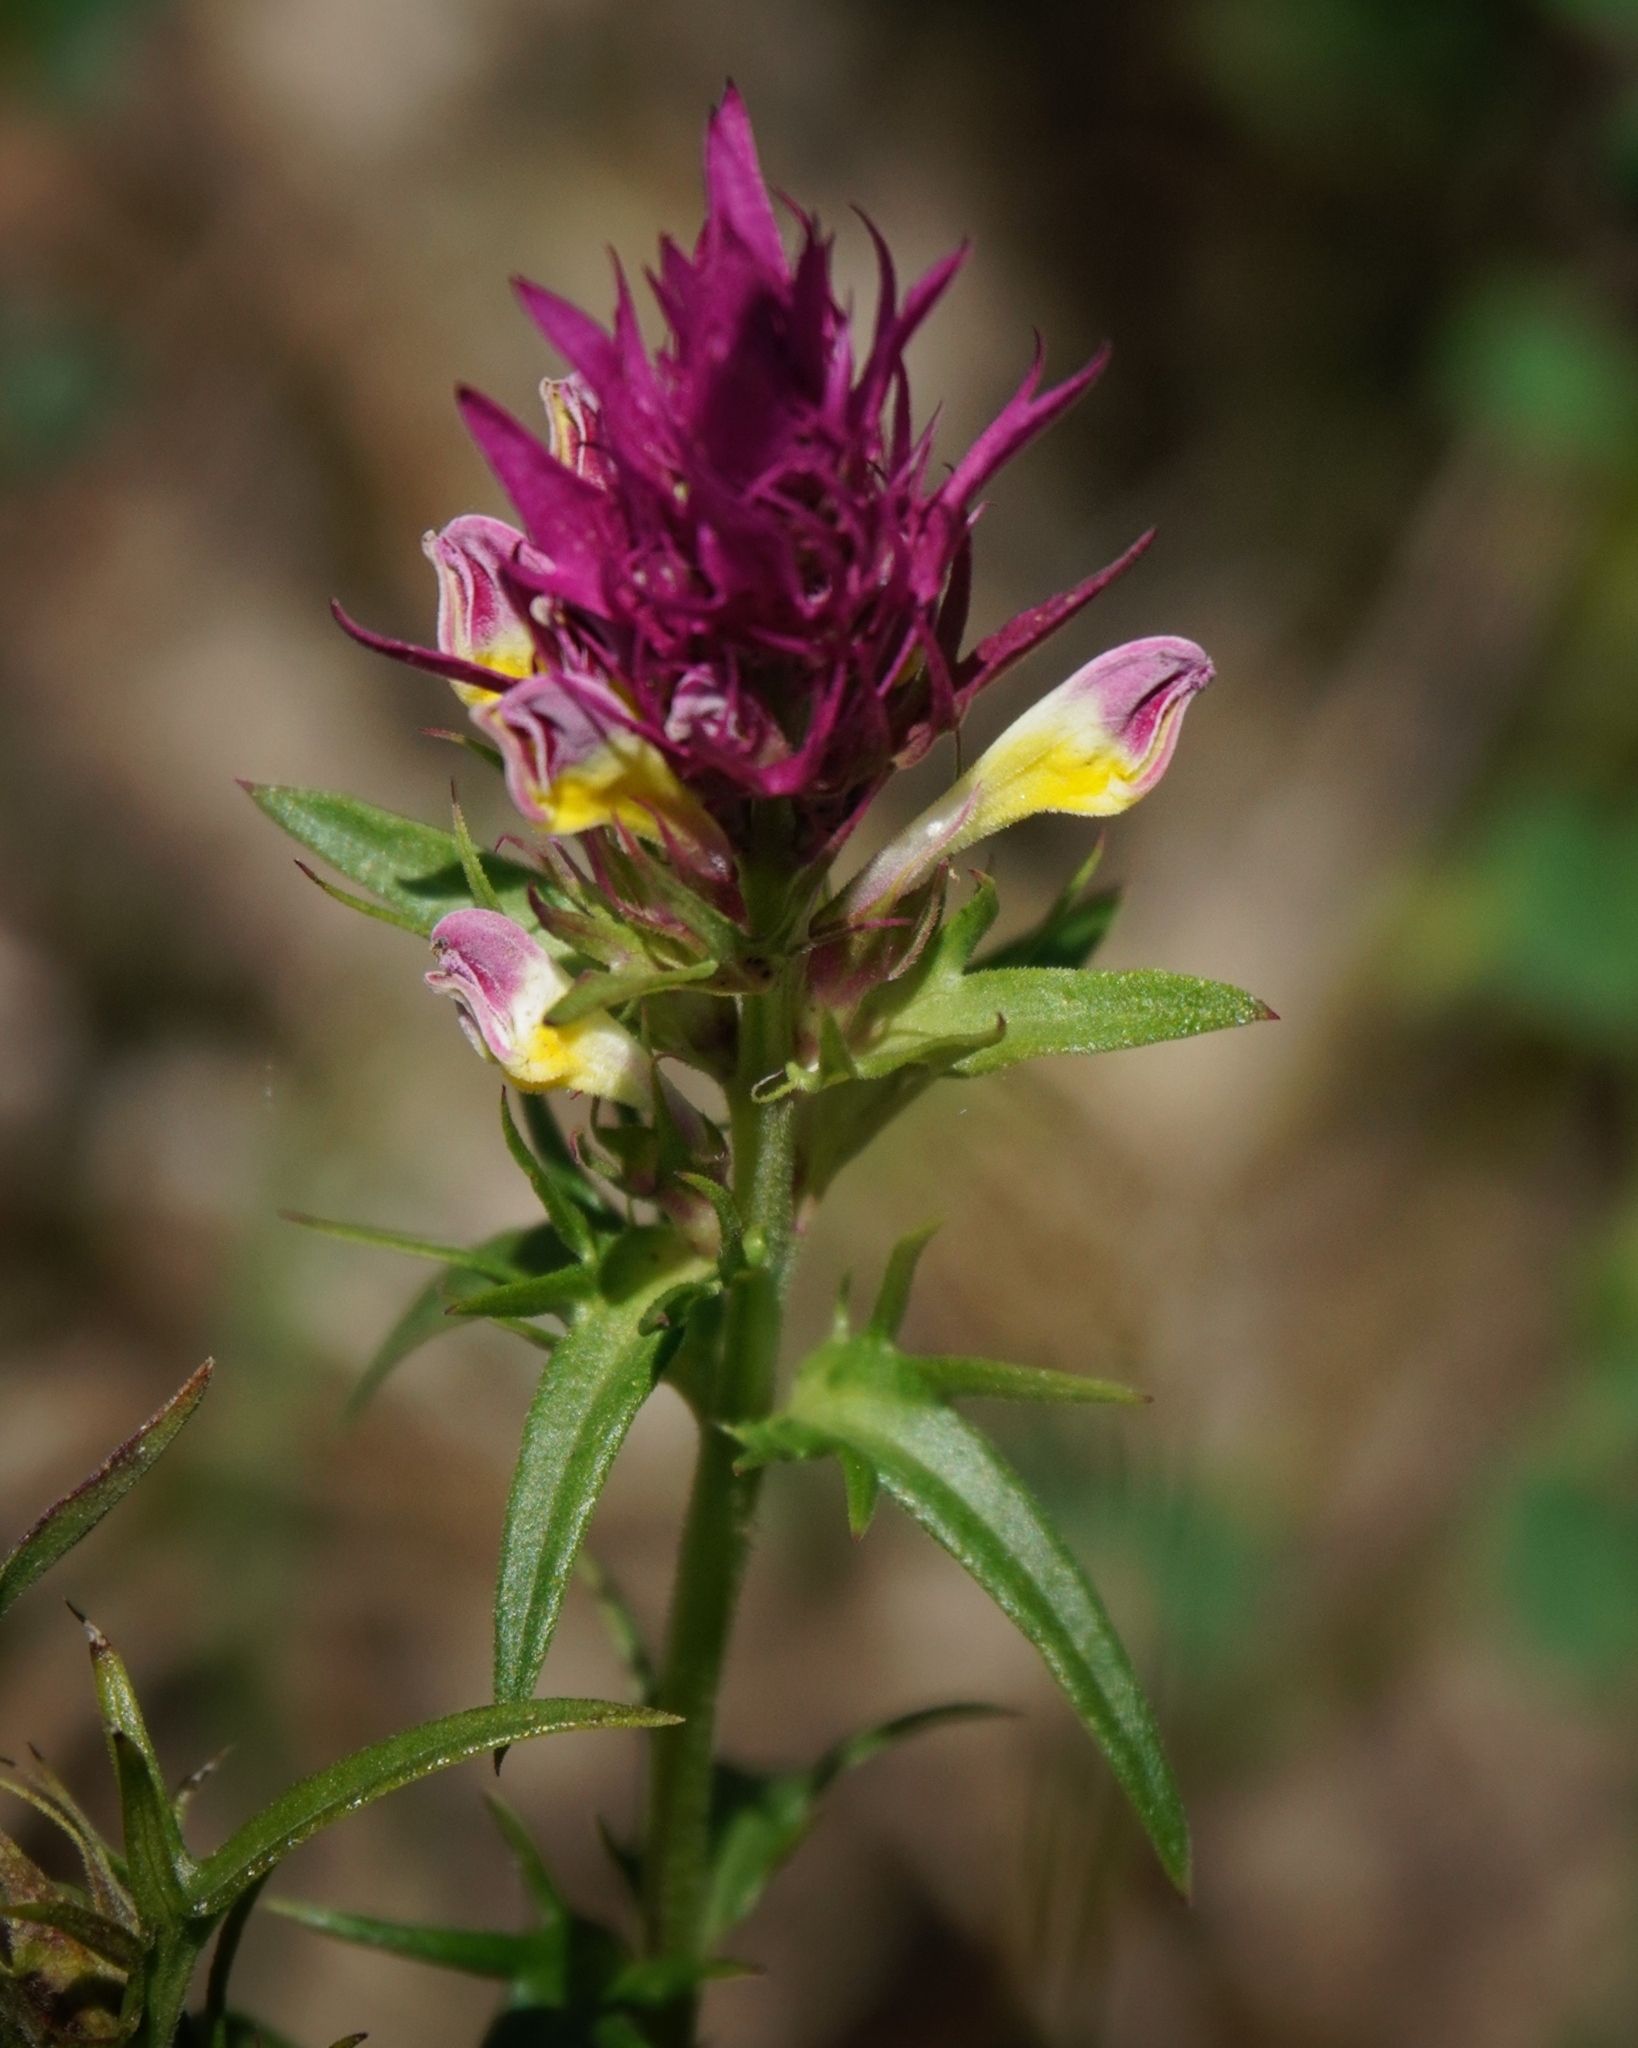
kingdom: Plantae
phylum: Tracheophyta
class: Magnoliopsida
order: Lamiales
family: Orobanchaceae
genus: Melampyrum
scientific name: Melampyrum arvense
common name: Field cow-wheat
